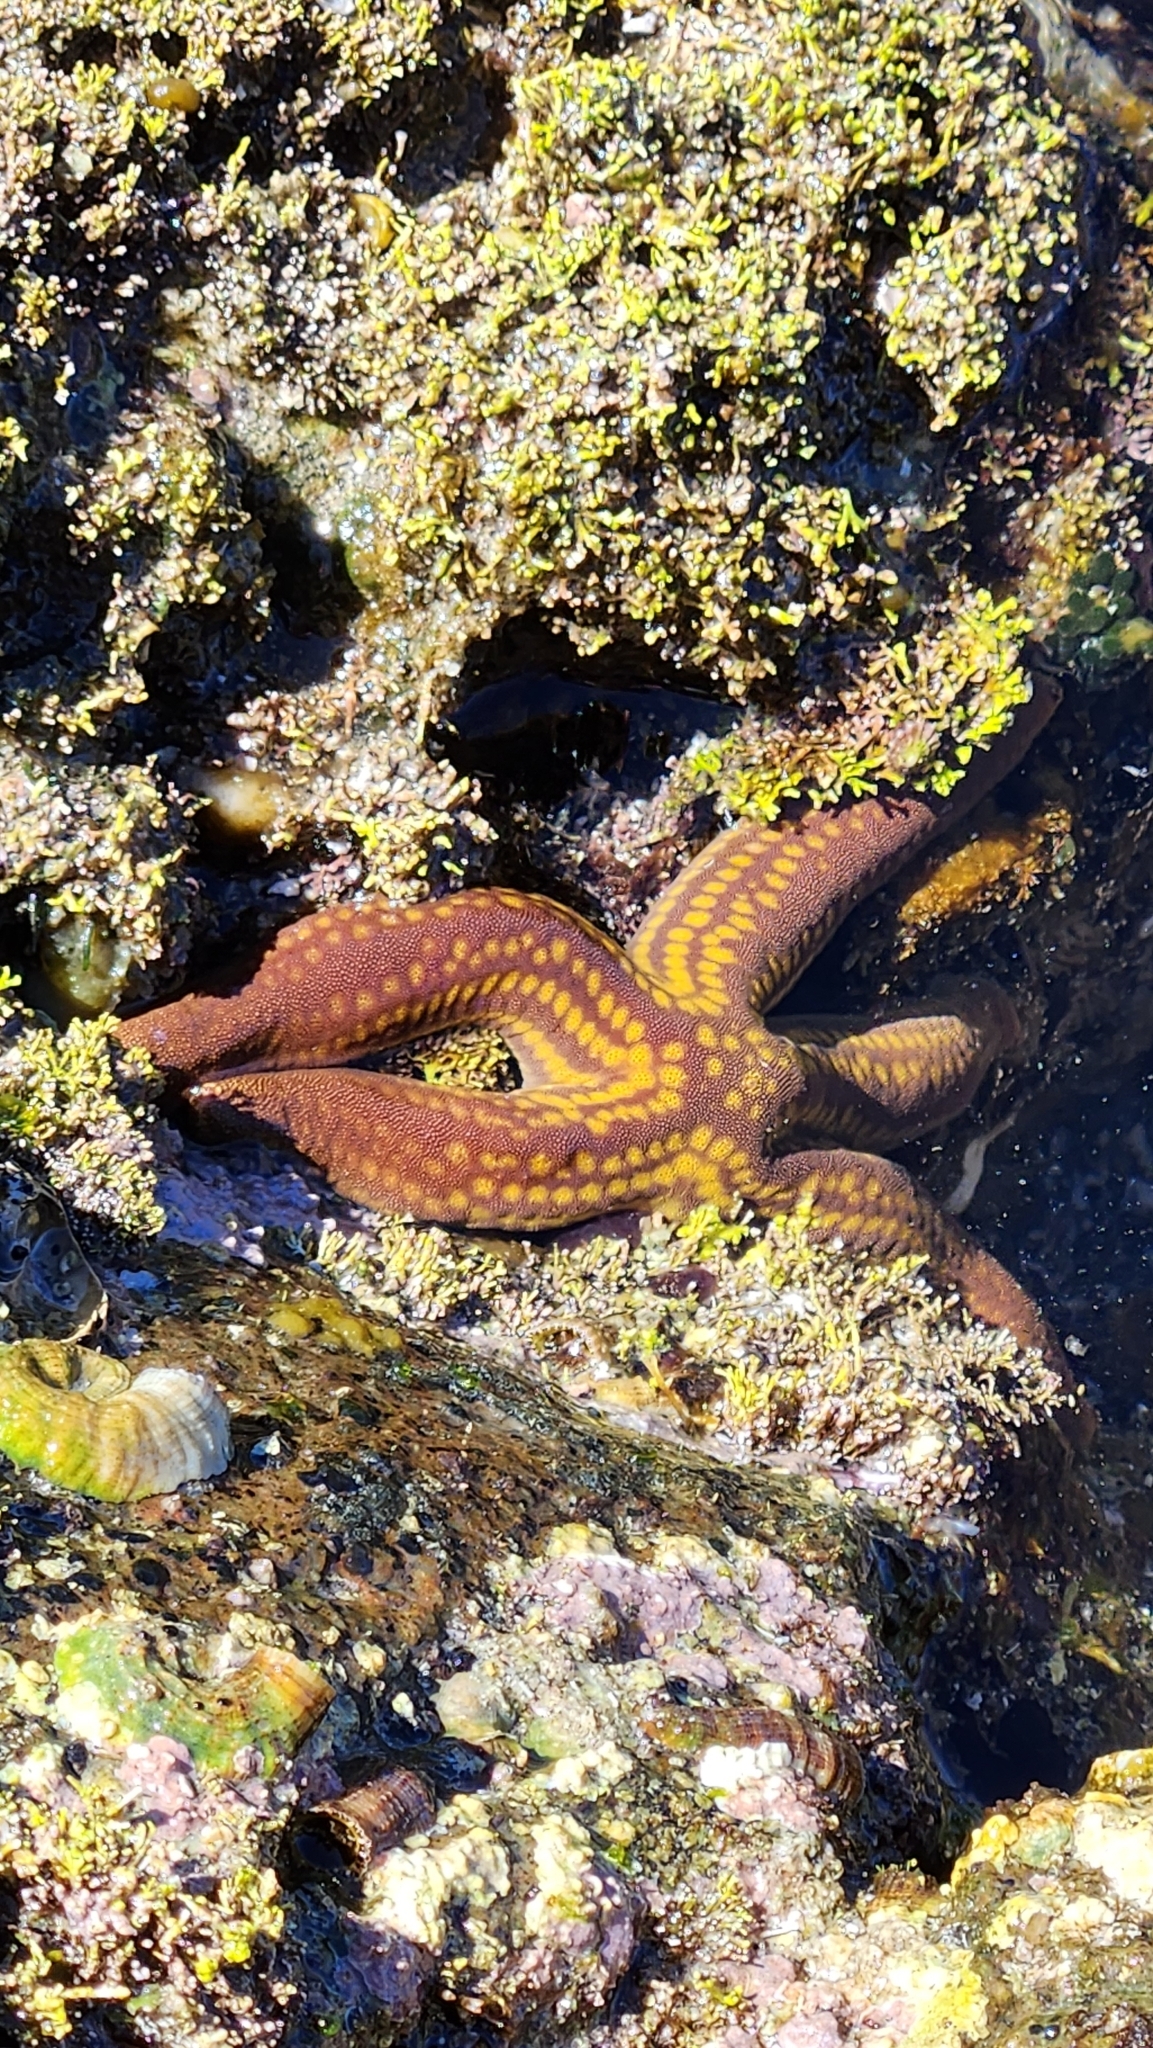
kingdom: Animalia
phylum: Echinodermata
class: Asteroidea
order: Valvatida
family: Ophidiasteridae
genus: Pharia
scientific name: Pharia pyramidata
